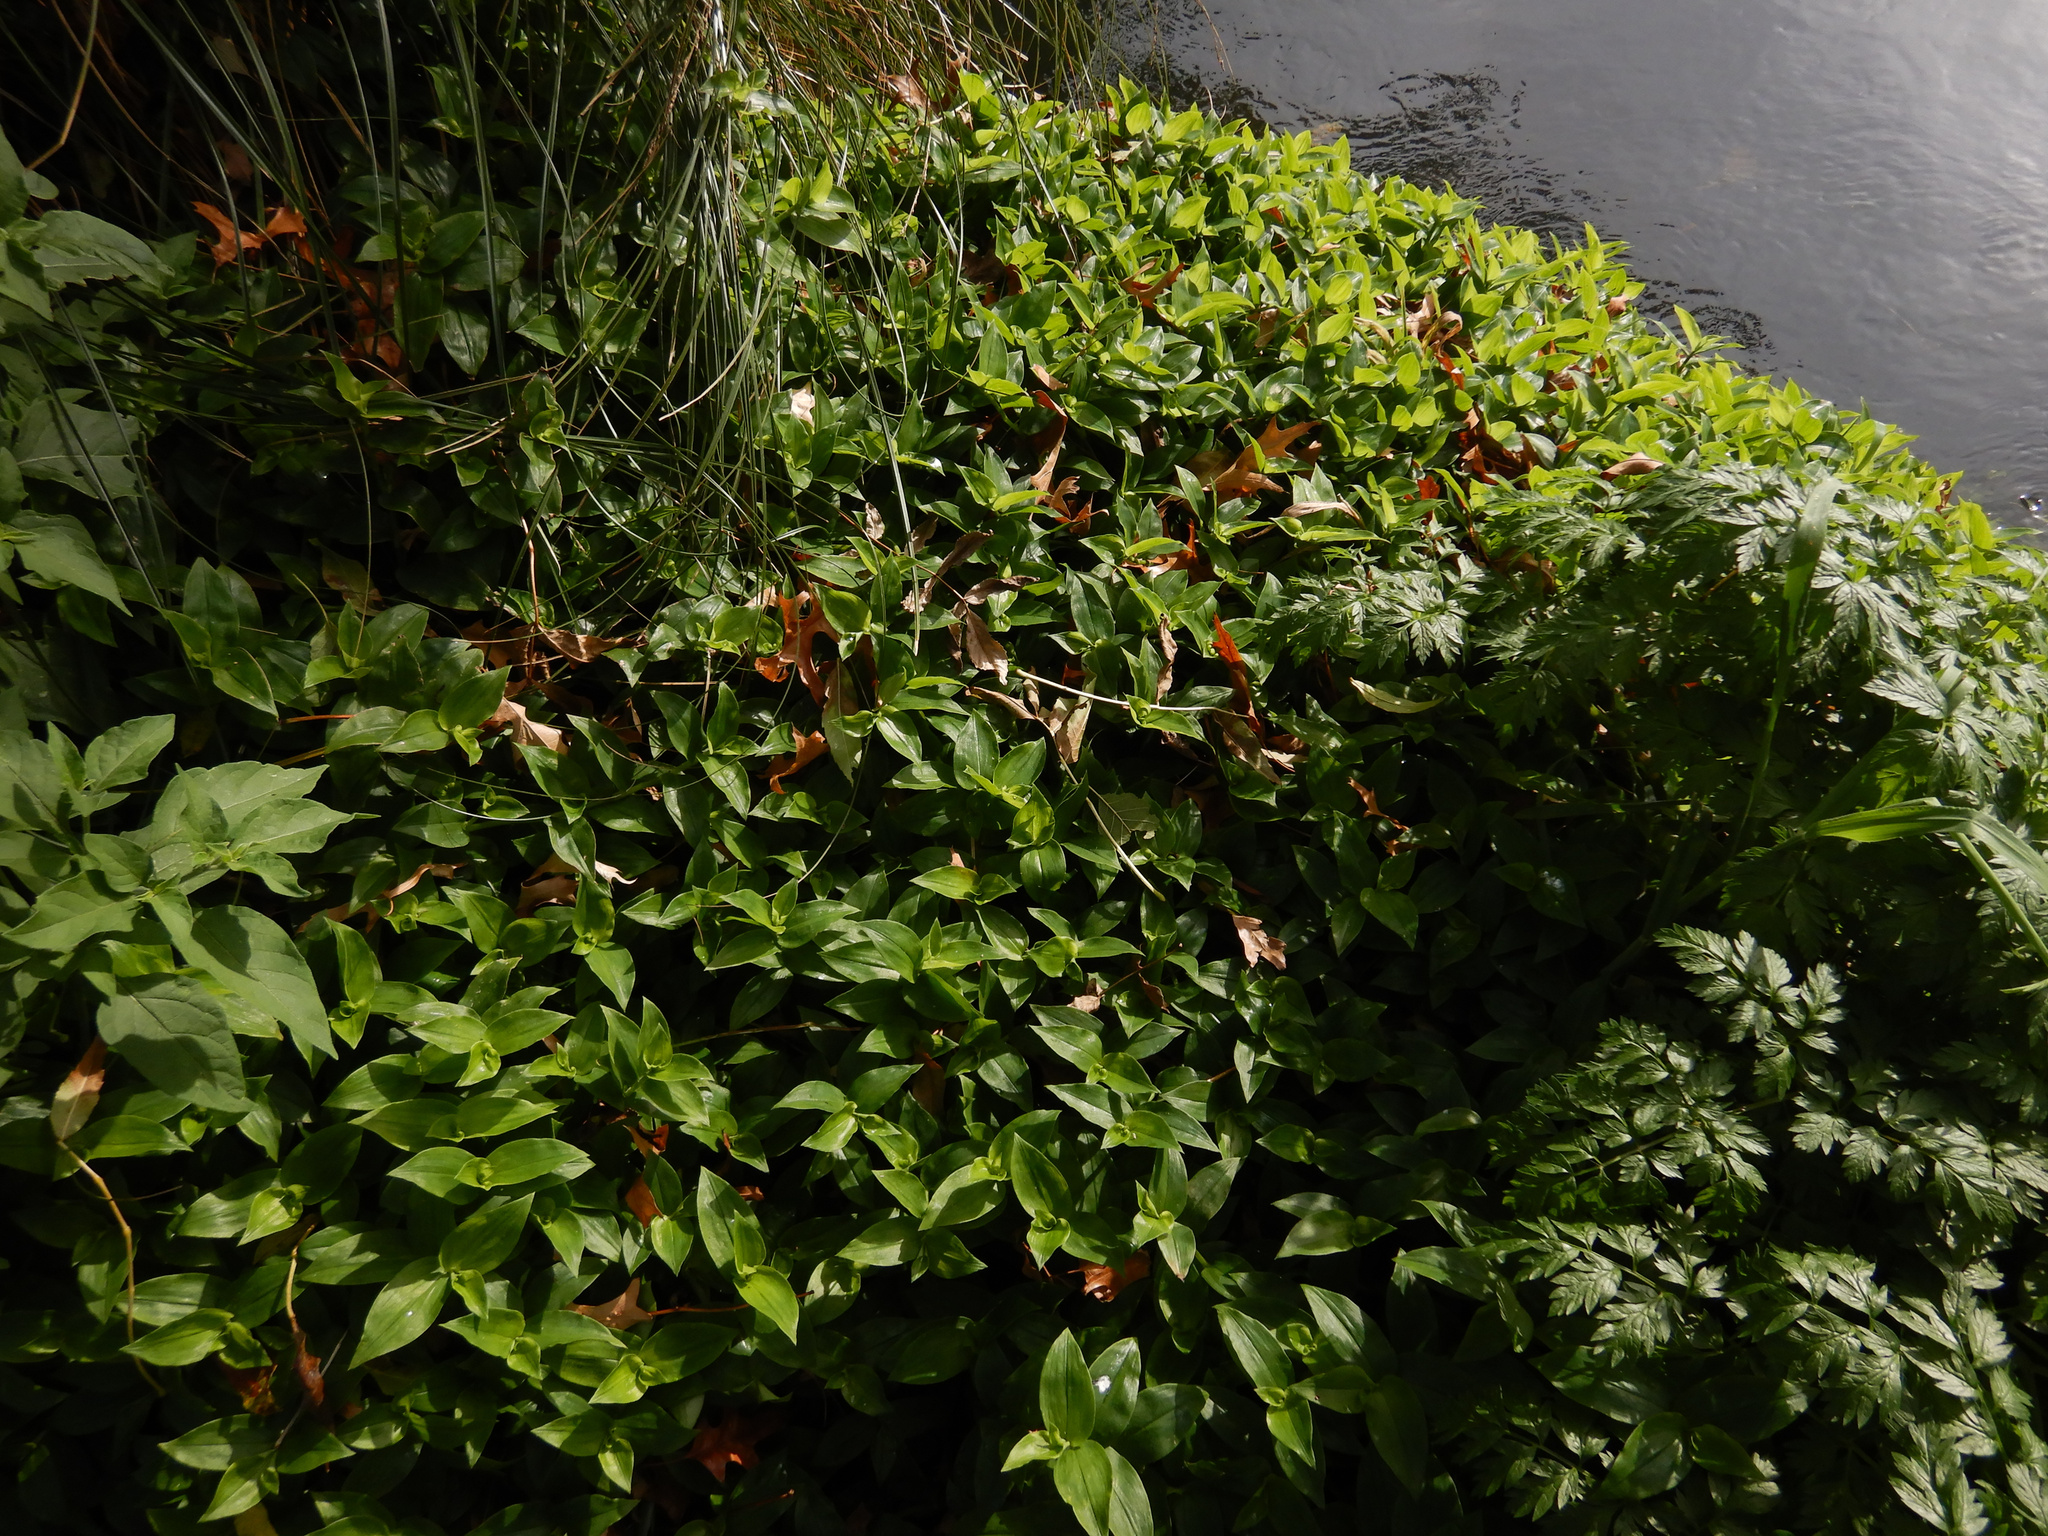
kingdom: Plantae
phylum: Tracheophyta
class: Liliopsida
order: Commelinales
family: Commelinaceae
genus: Tradescantia
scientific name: Tradescantia fluminensis
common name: Wandering-jew
